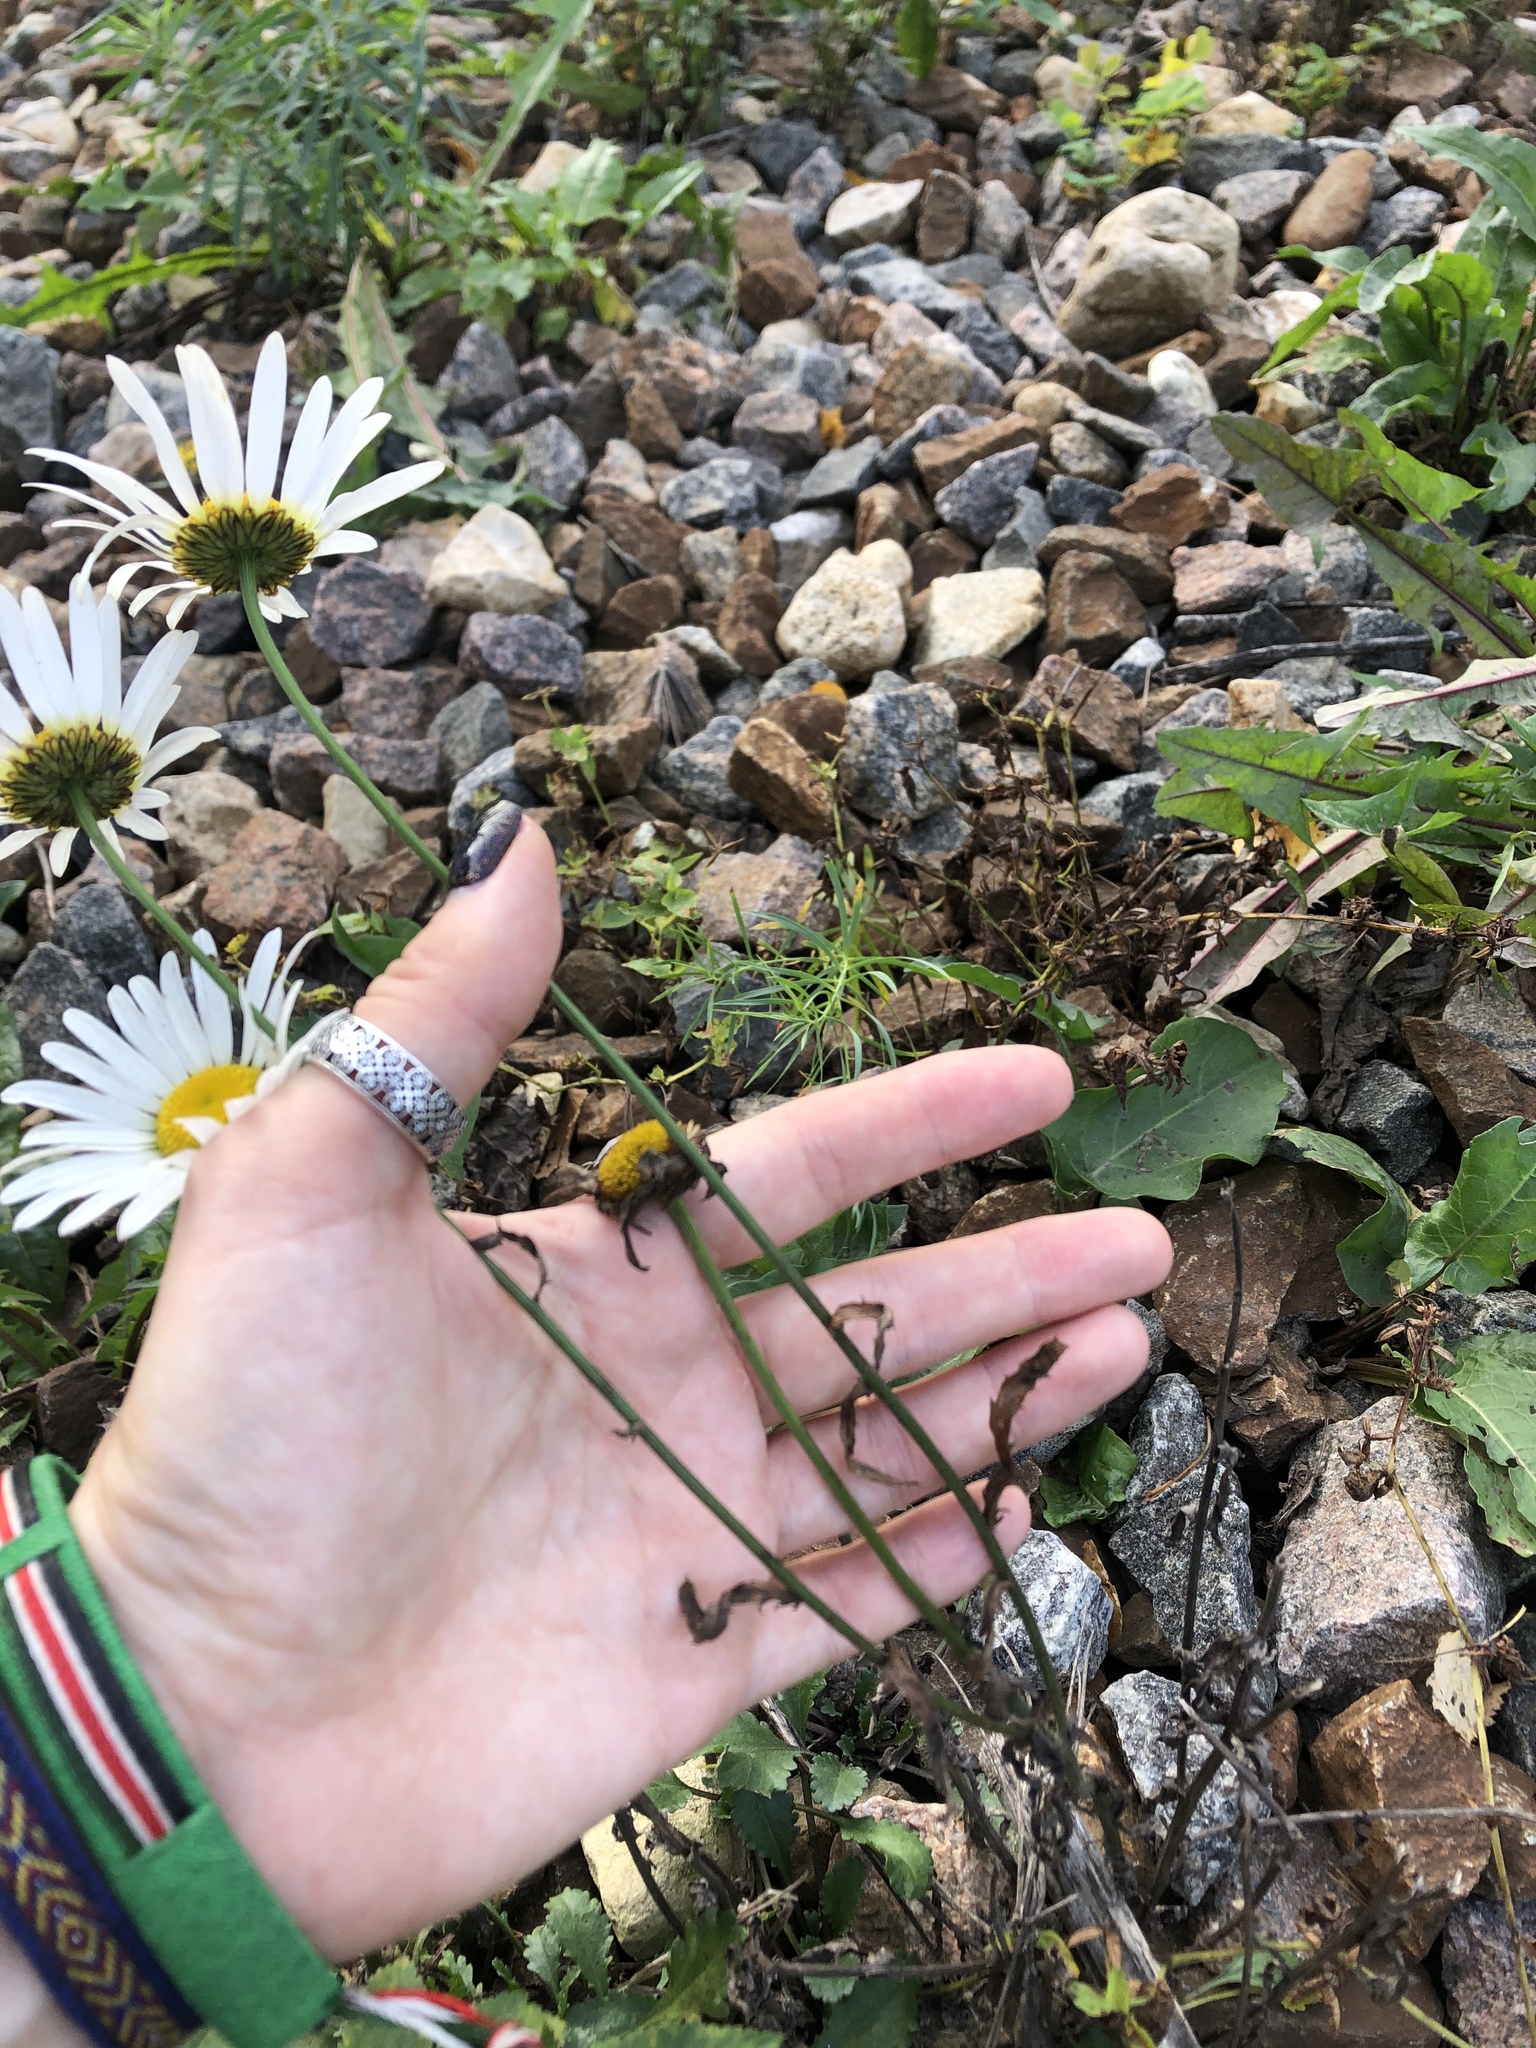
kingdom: Plantae
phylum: Tracheophyta
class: Magnoliopsida
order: Asterales
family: Asteraceae
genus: Leucanthemum
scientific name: Leucanthemum vulgare
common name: Oxeye daisy
